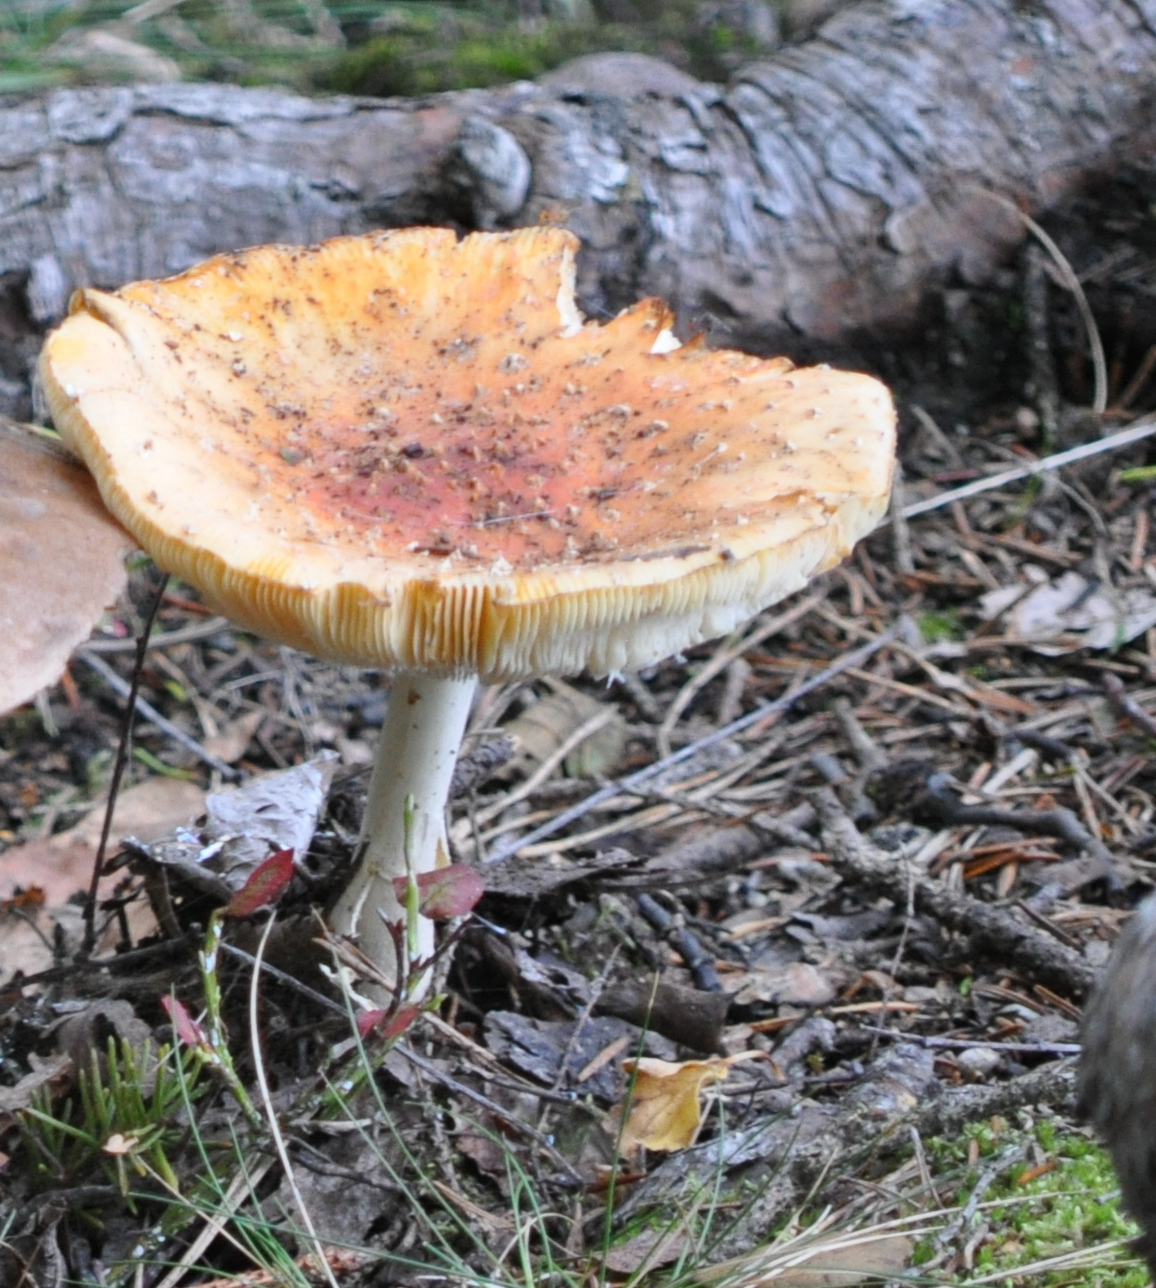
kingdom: Fungi
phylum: Basidiomycota
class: Agaricomycetes
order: Agaricales
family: Amanitaceae
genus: Amanita
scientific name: Amanita muscaria
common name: Fly agaric
